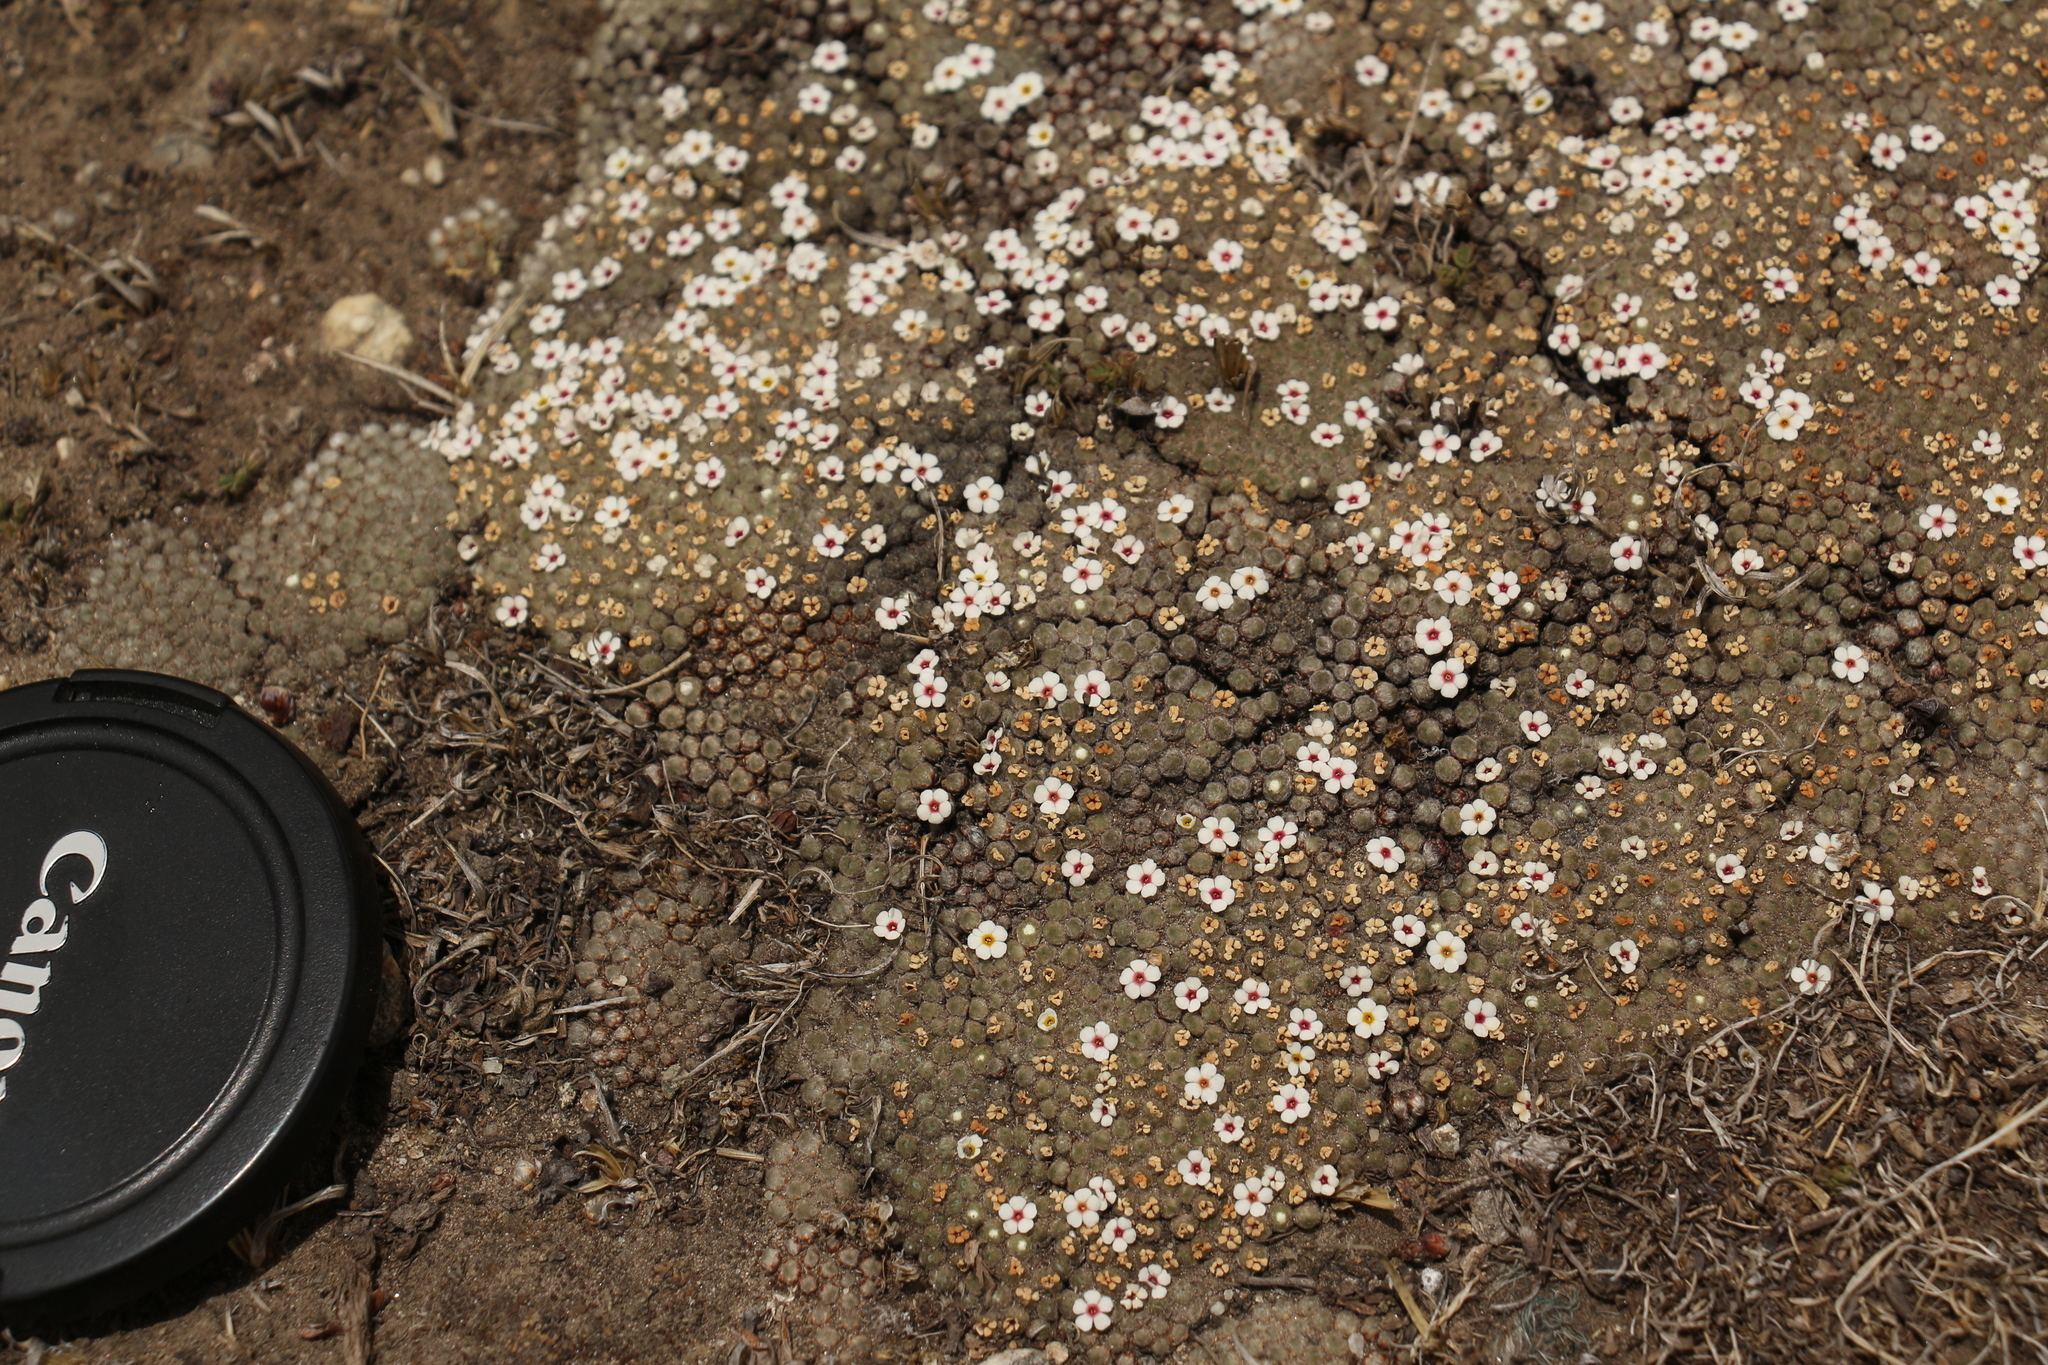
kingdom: Plantae
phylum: Tracheophyta
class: Magnoliopsida
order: Ericales
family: Primulaceae
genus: Androsace
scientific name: Androsace tapete
